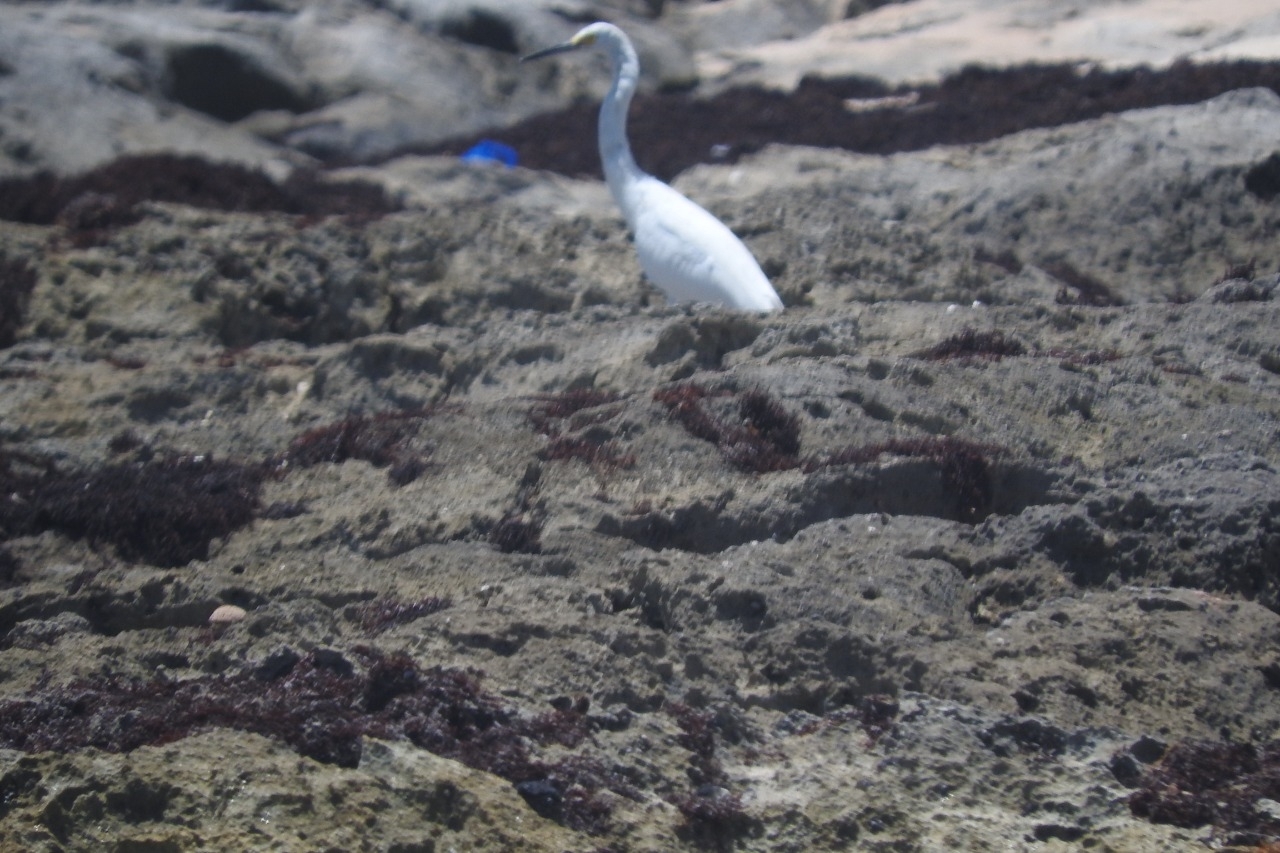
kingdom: Animalia
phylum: Chordata
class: Aves
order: Pelecaniformes
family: Ardeidae
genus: Egretta
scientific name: Egretta thula
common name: Snowy egret
